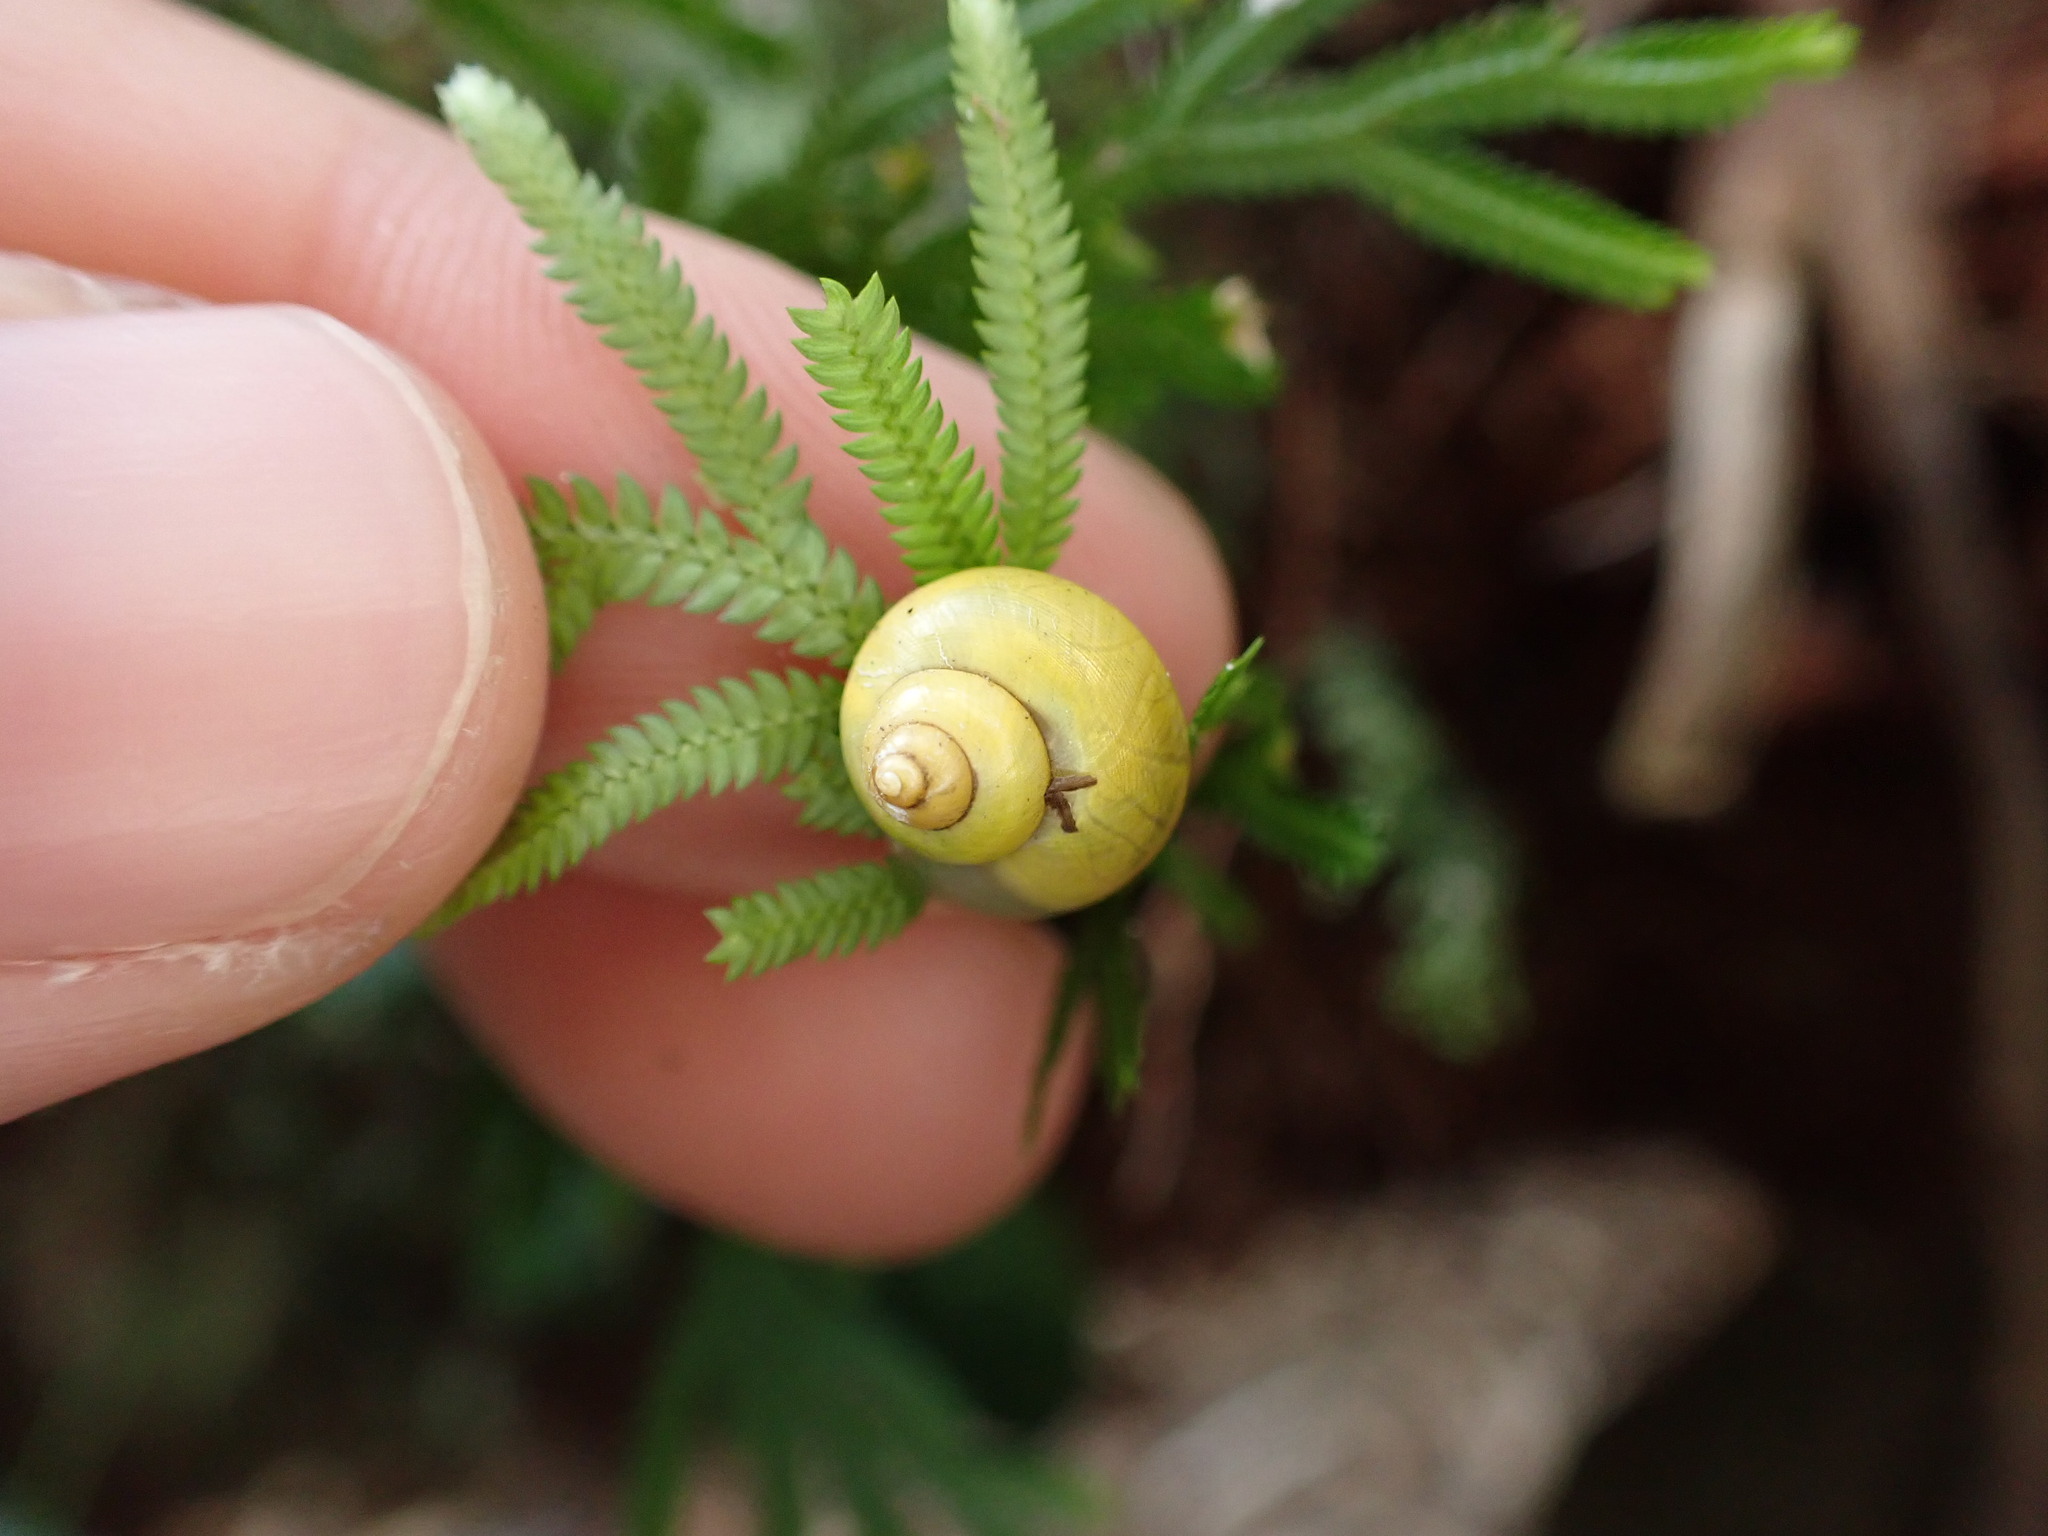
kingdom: Animalia
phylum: Mollusca
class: Gastropoda
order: Architaenioglossa
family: Cyclophoridae
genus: Leptopoma
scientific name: Leptopoma tigris
